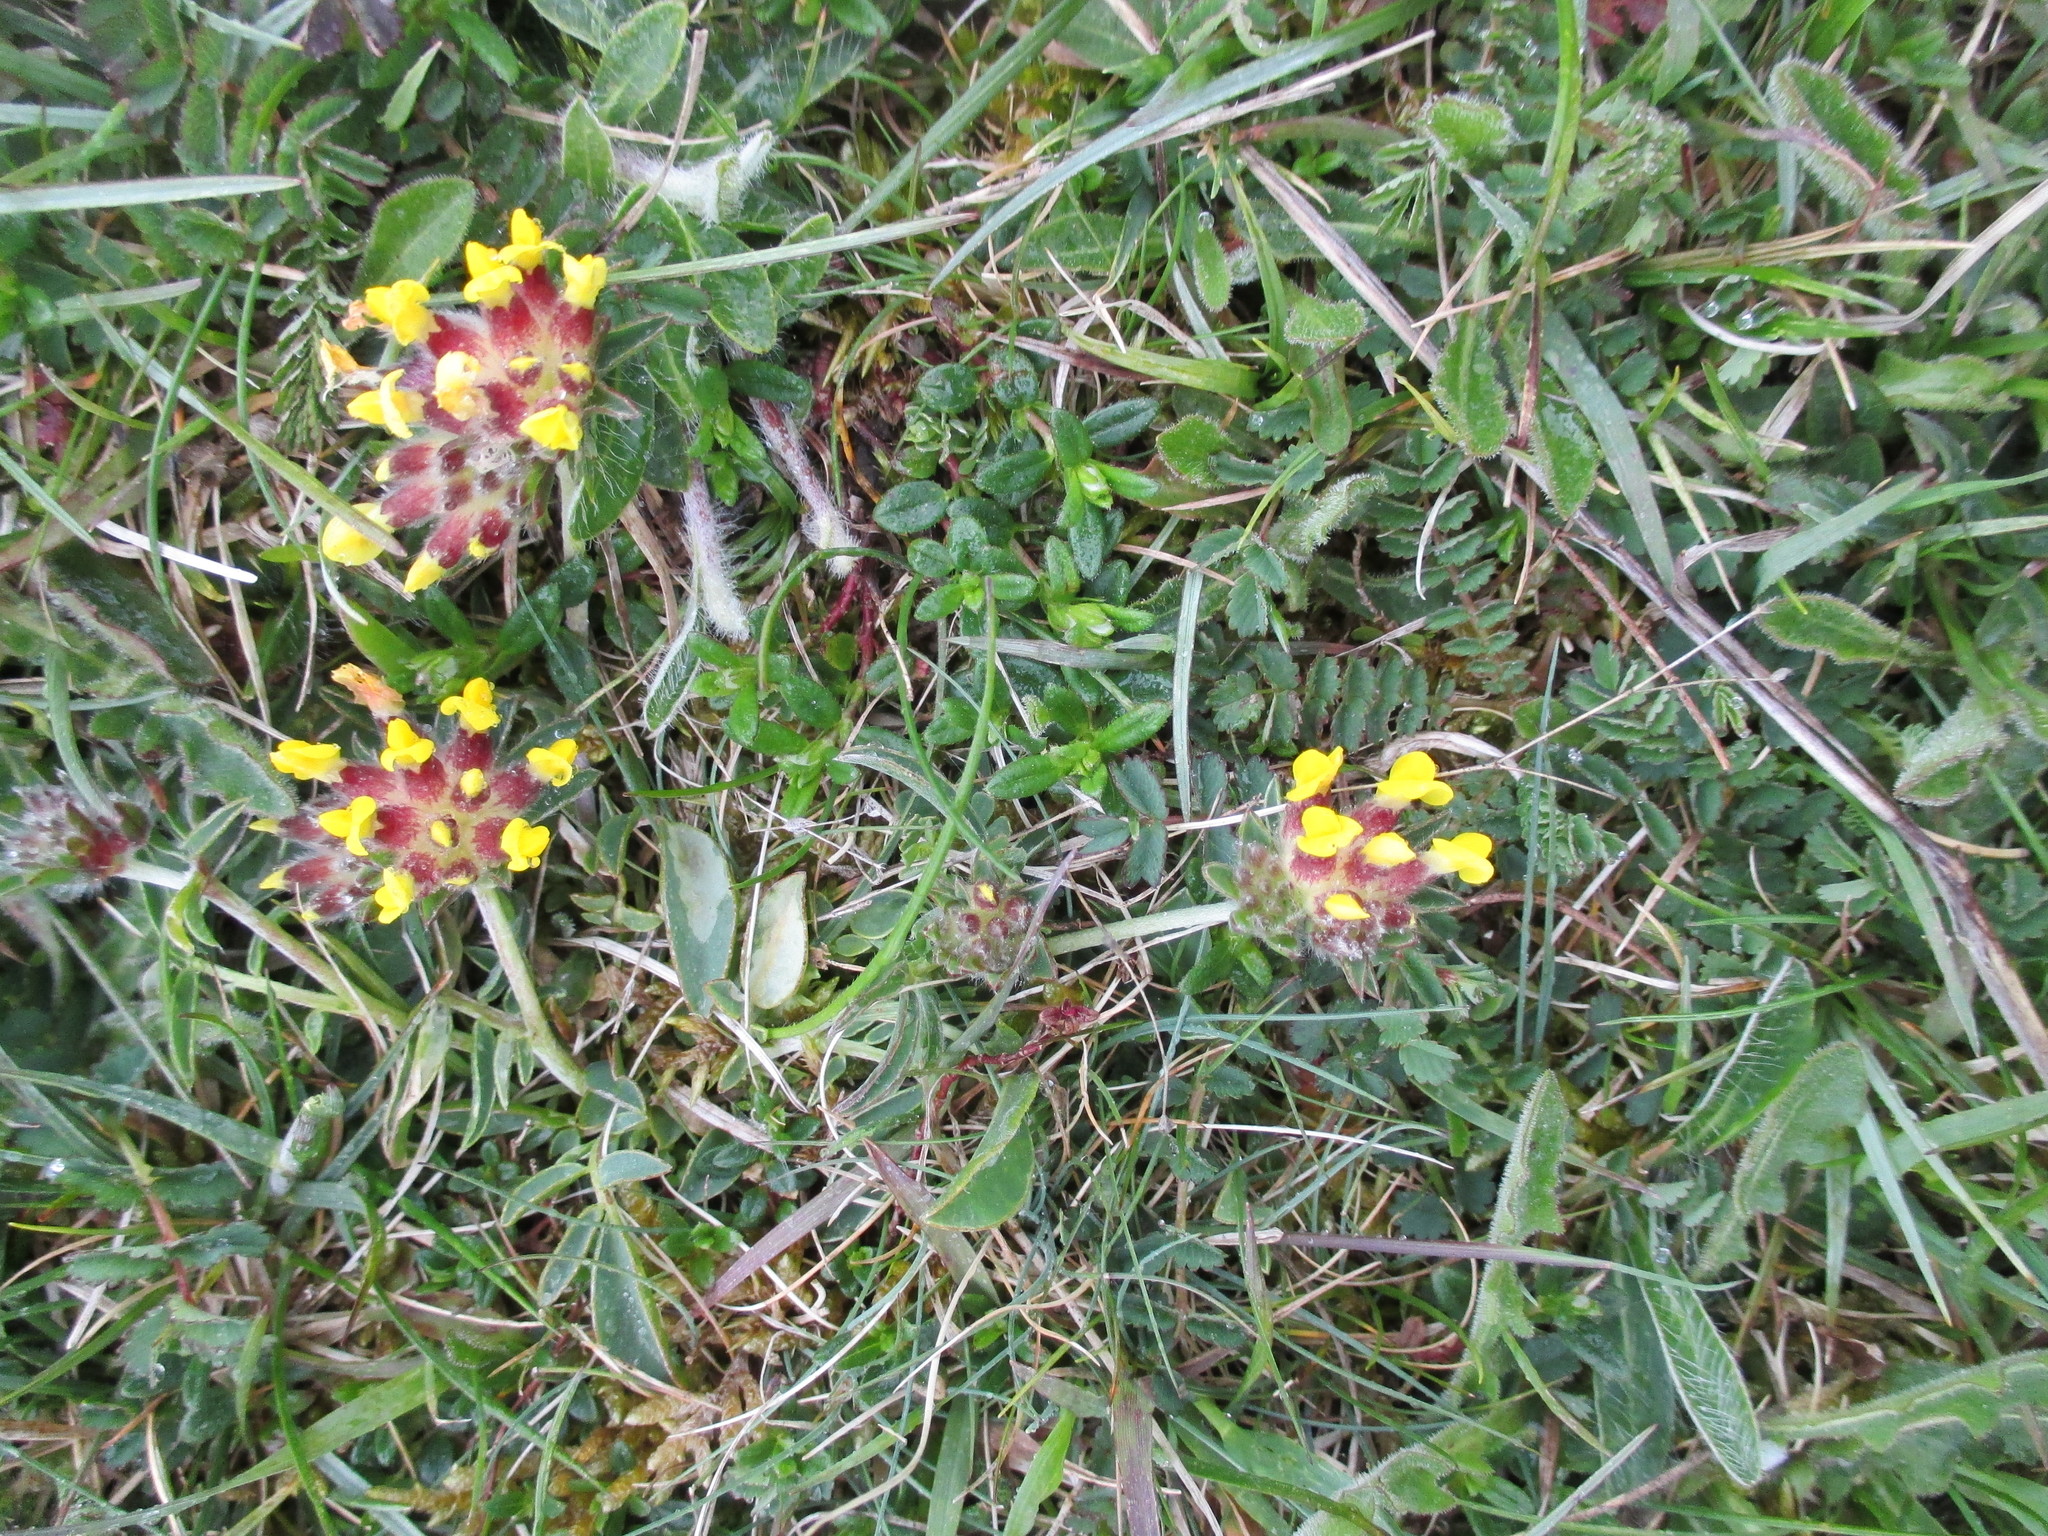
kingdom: Plantae
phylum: Tracheophyta
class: Magnoliopsida
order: Fabales
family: Fabaceae
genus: Anthyllis
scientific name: Anthyllis vulneraria
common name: Kidney vetch
